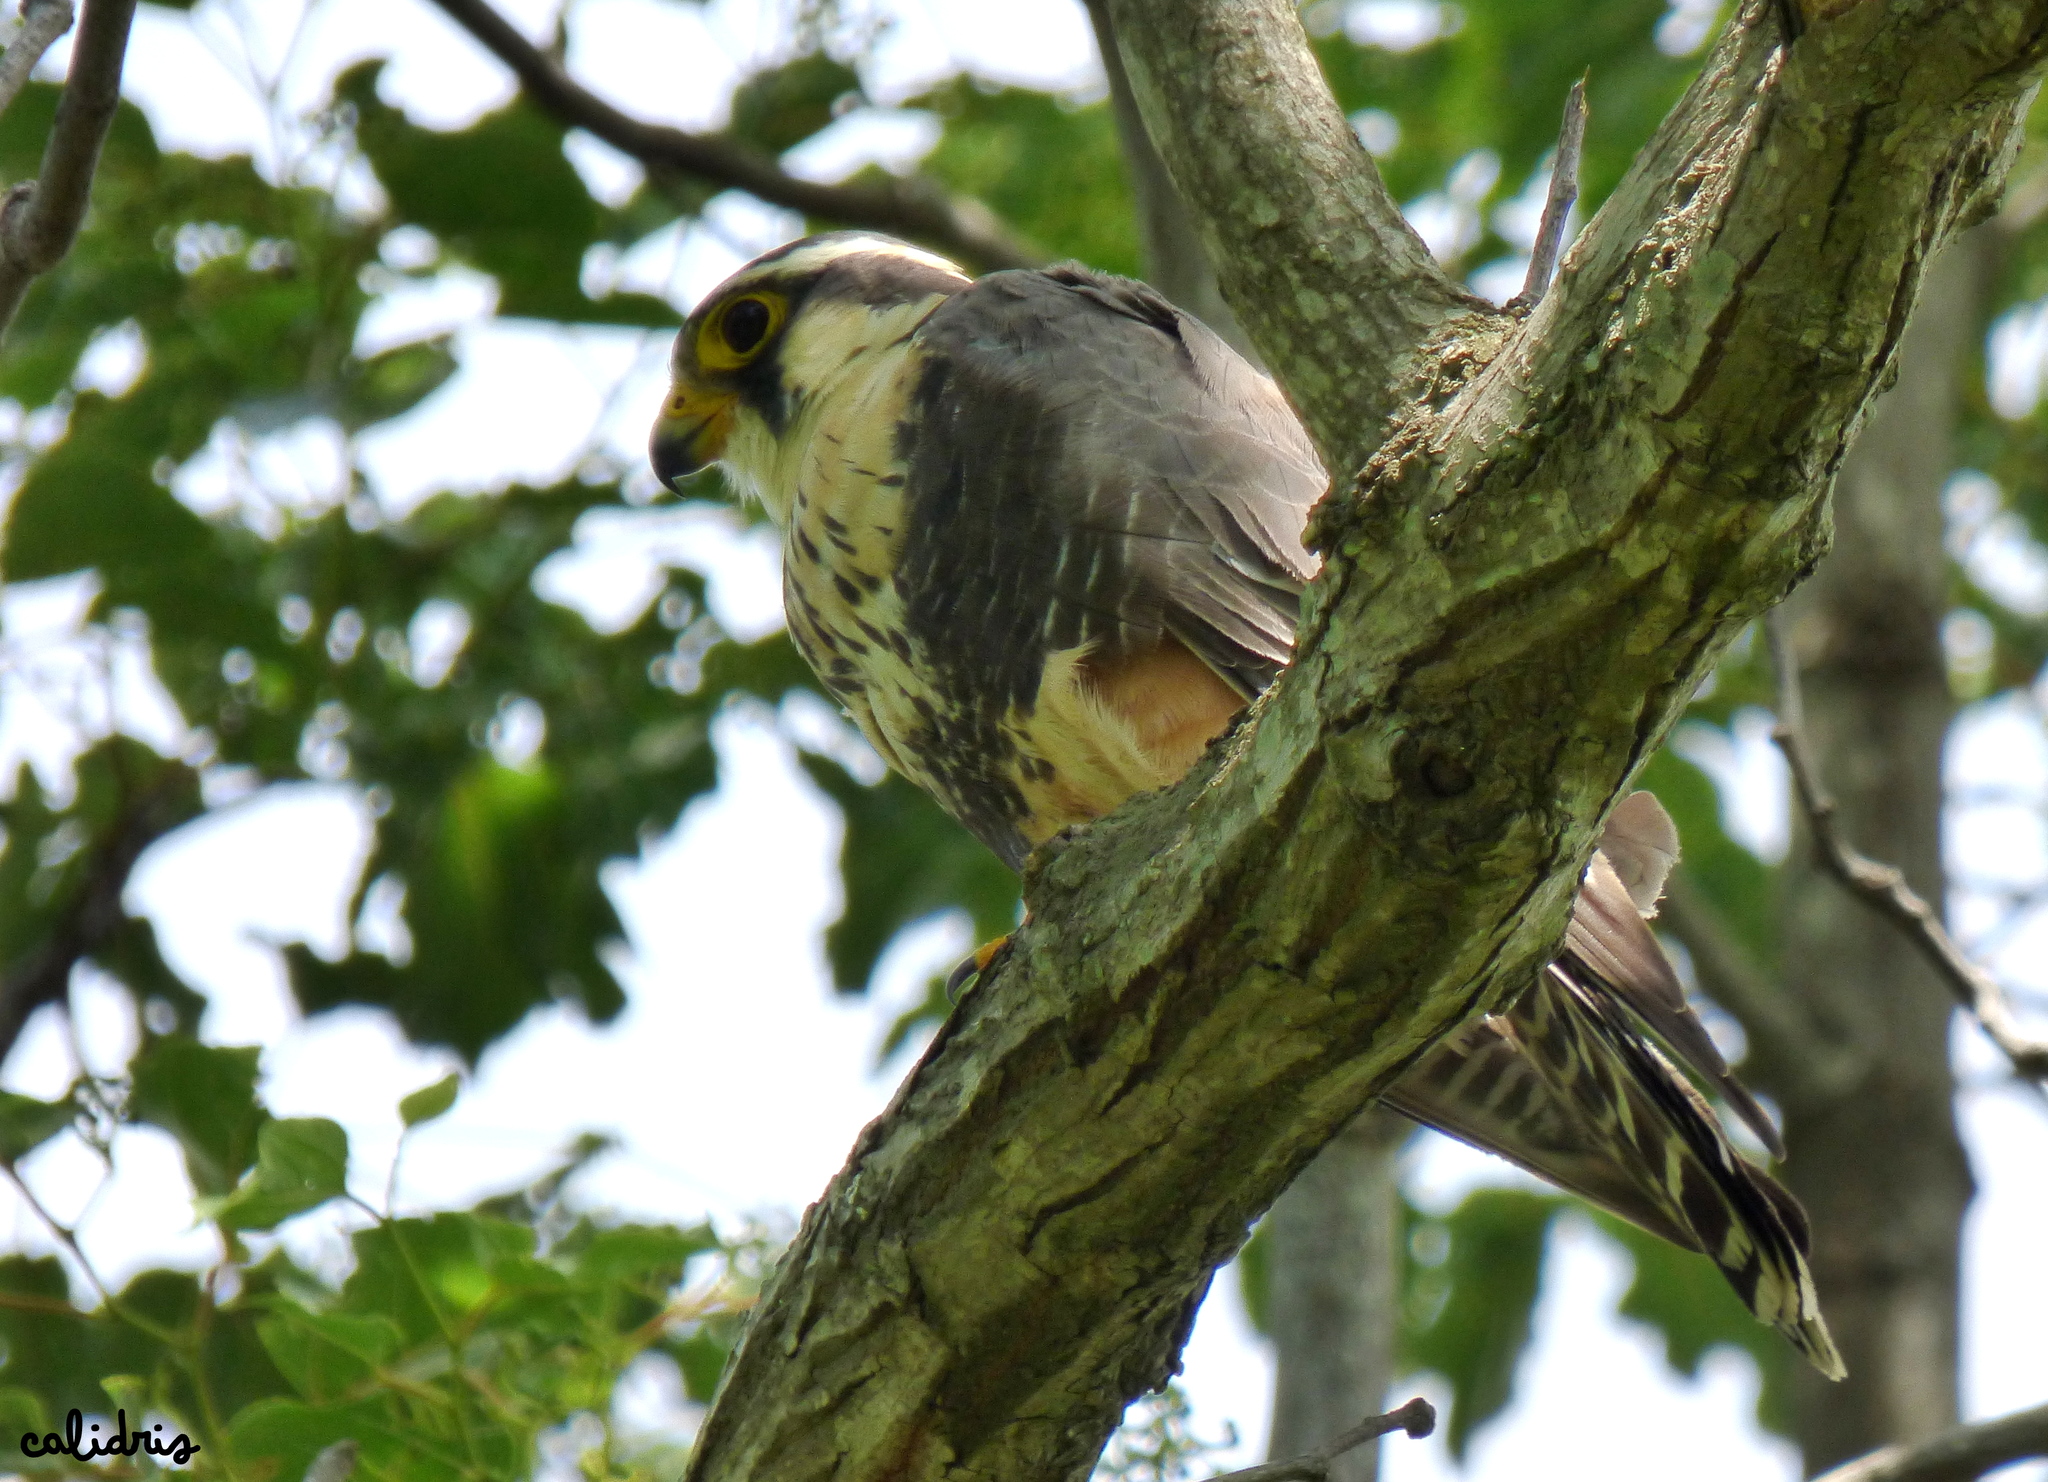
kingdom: Animalia
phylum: Chordata
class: Aves
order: Falconiformes
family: Falconidae
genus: Falco
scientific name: Falco femoralis
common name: Aplomado falcon
